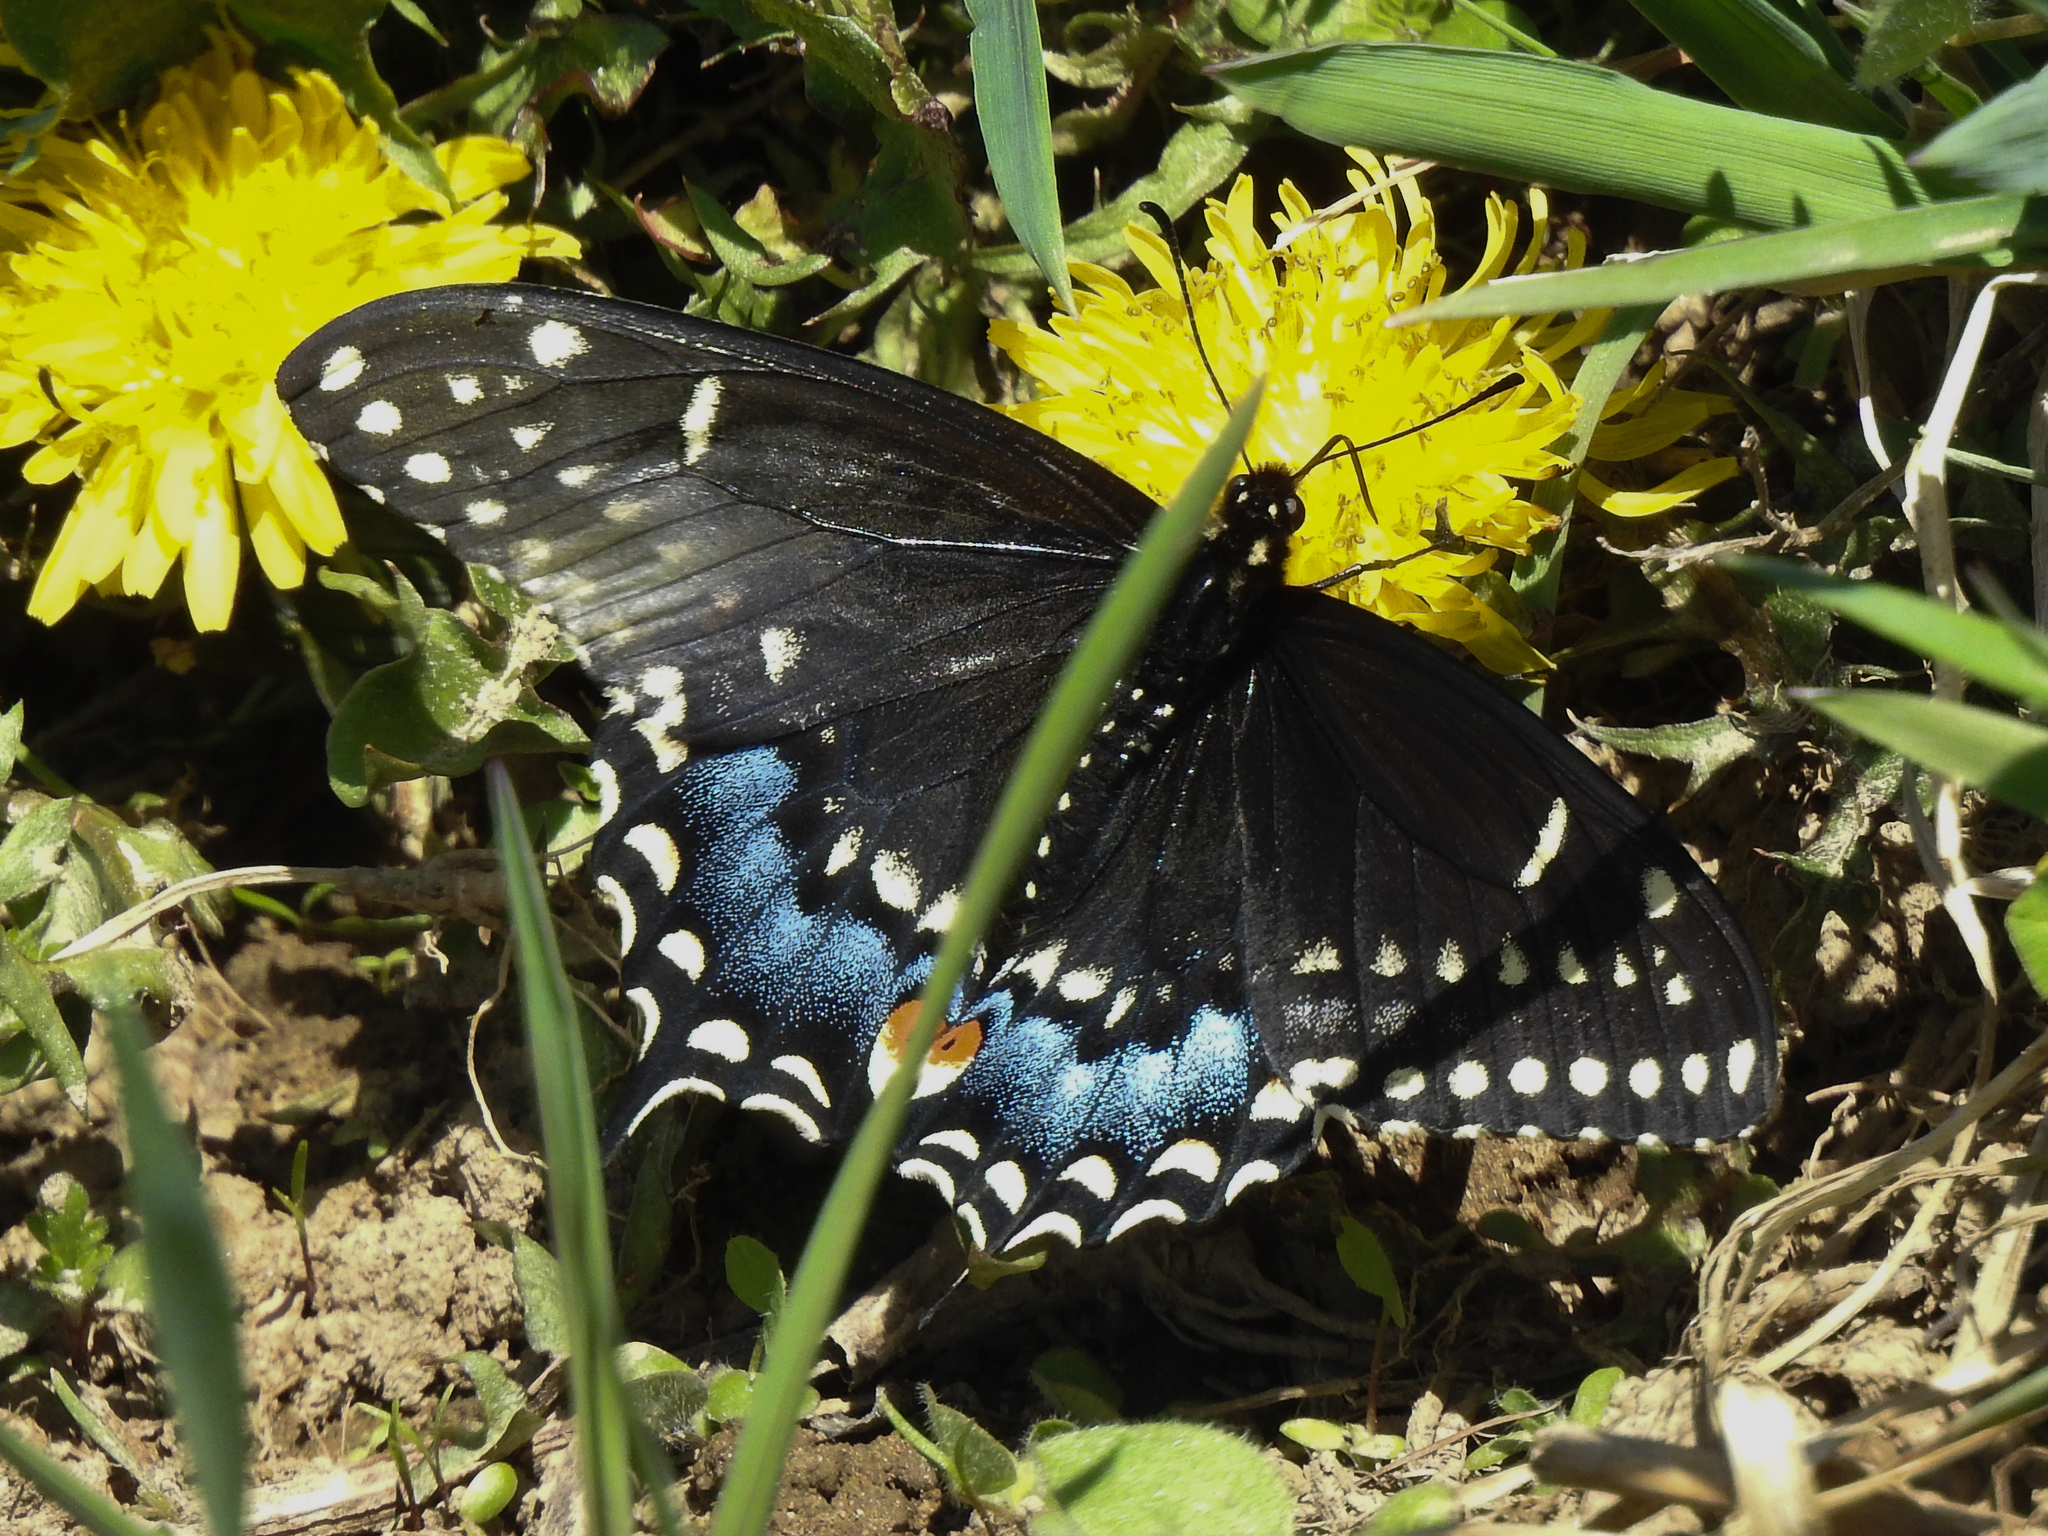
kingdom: Animalia
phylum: Arthropoda
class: Insecta
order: Lepidoptera
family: Papilionidae
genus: Papilio
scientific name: Papilio polyxenes
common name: Black swallowtail
